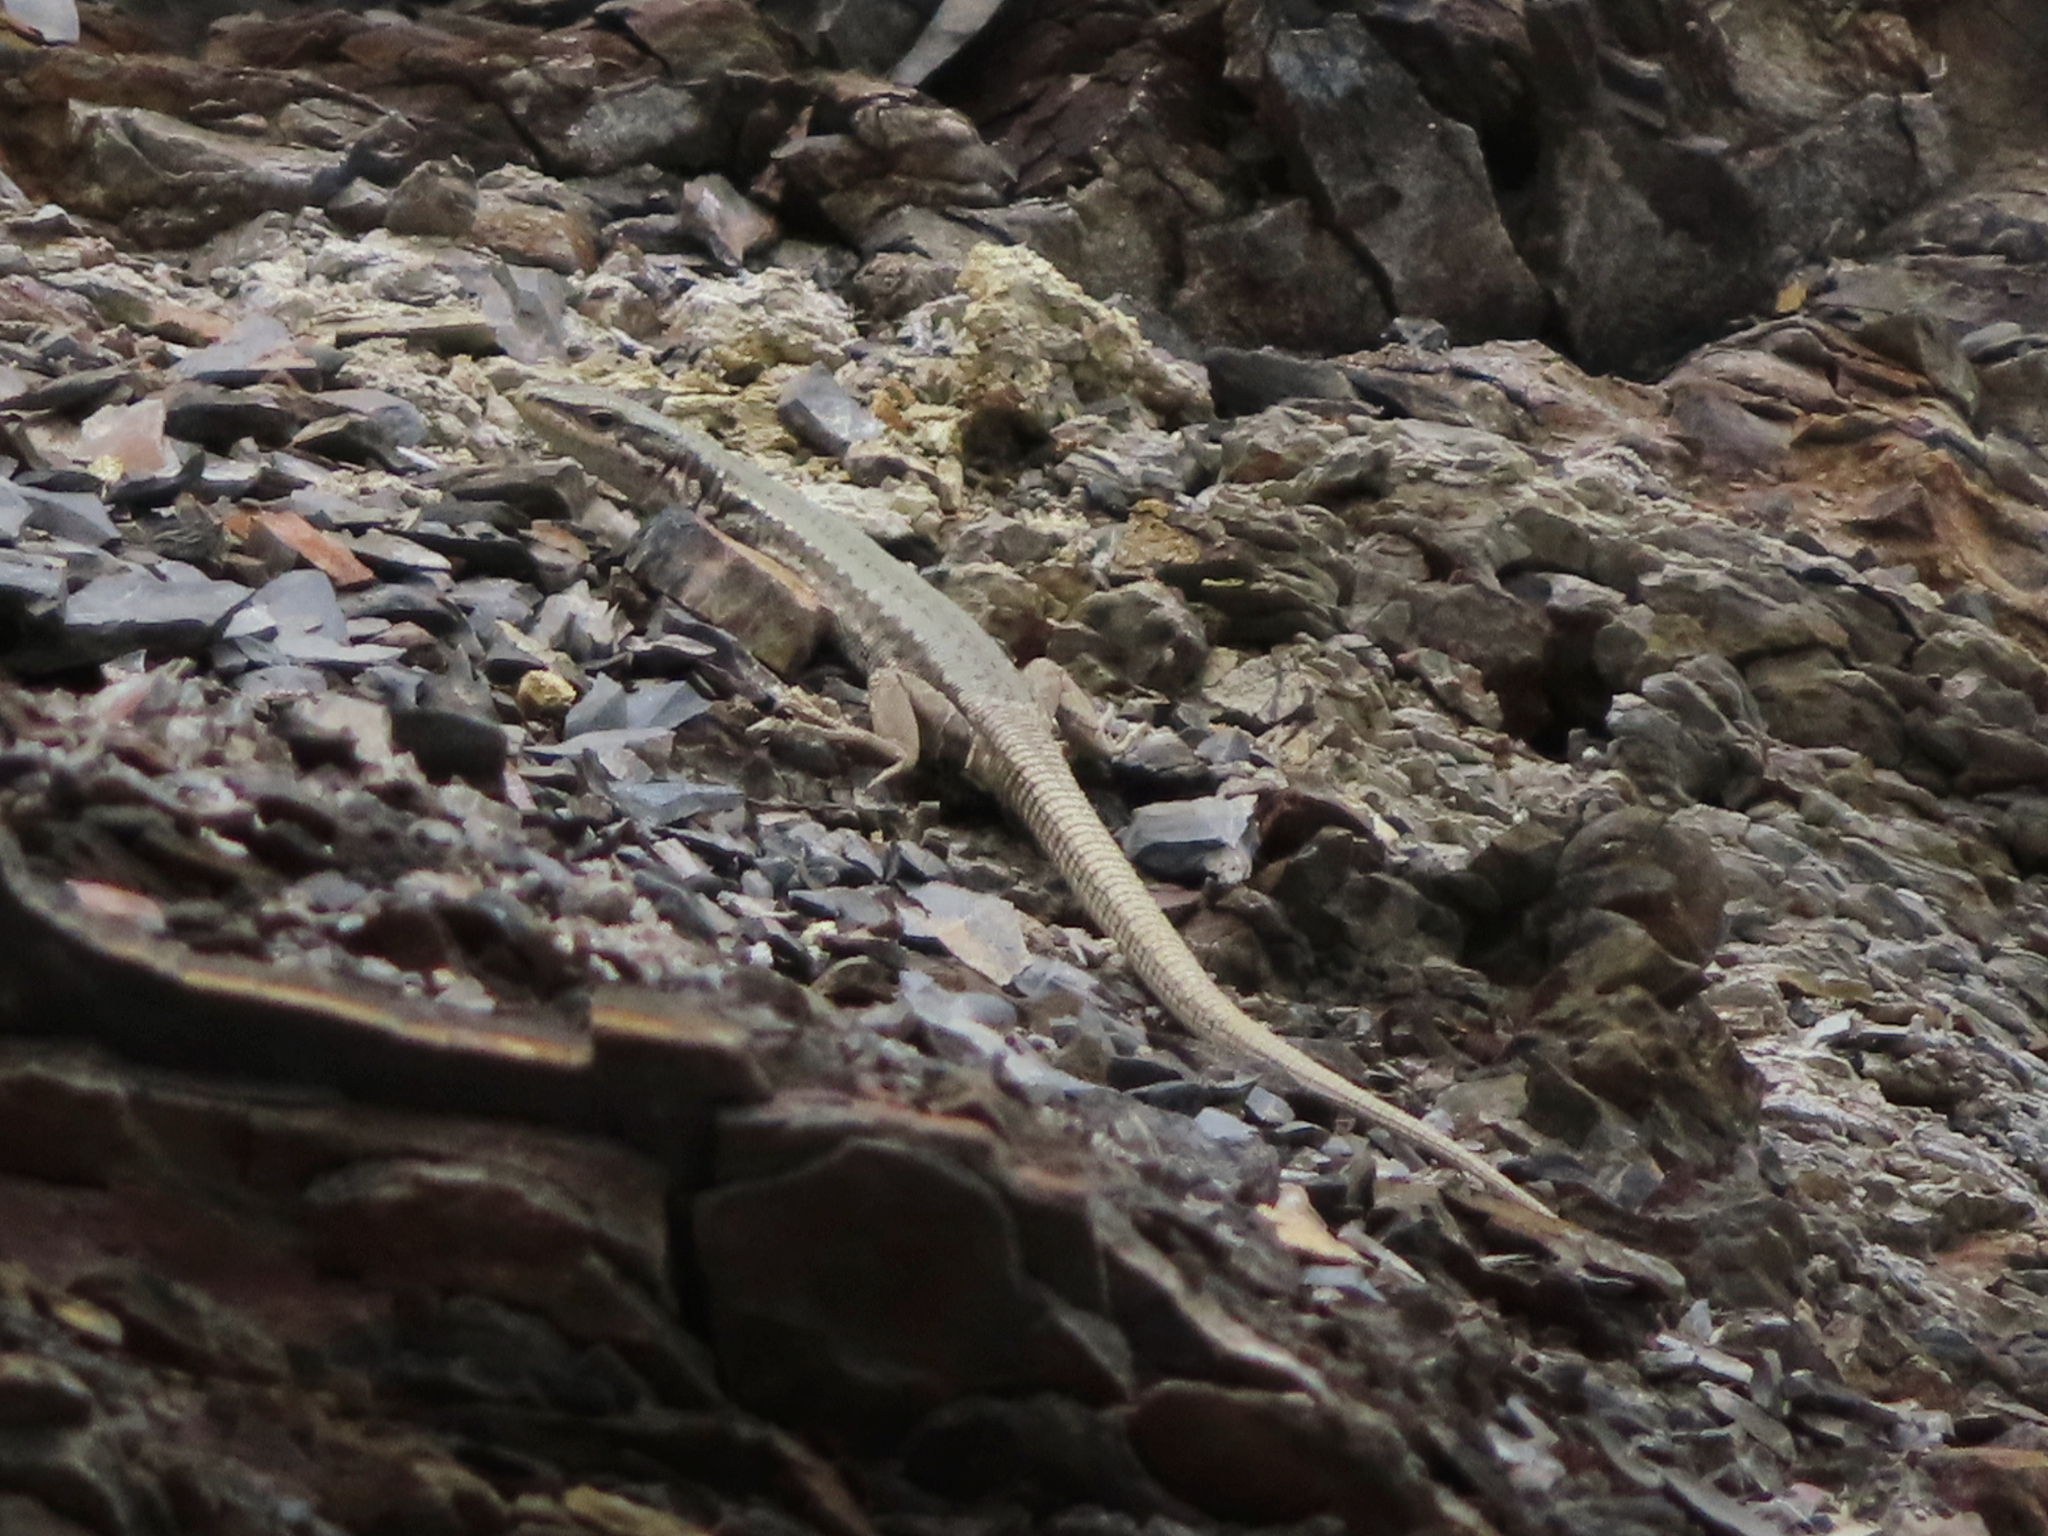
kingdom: Animalia
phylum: Chordata
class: Squamata
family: Lacertidae
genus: Darevskia
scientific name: Darevskia daghestanica
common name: Dagestan lizard
